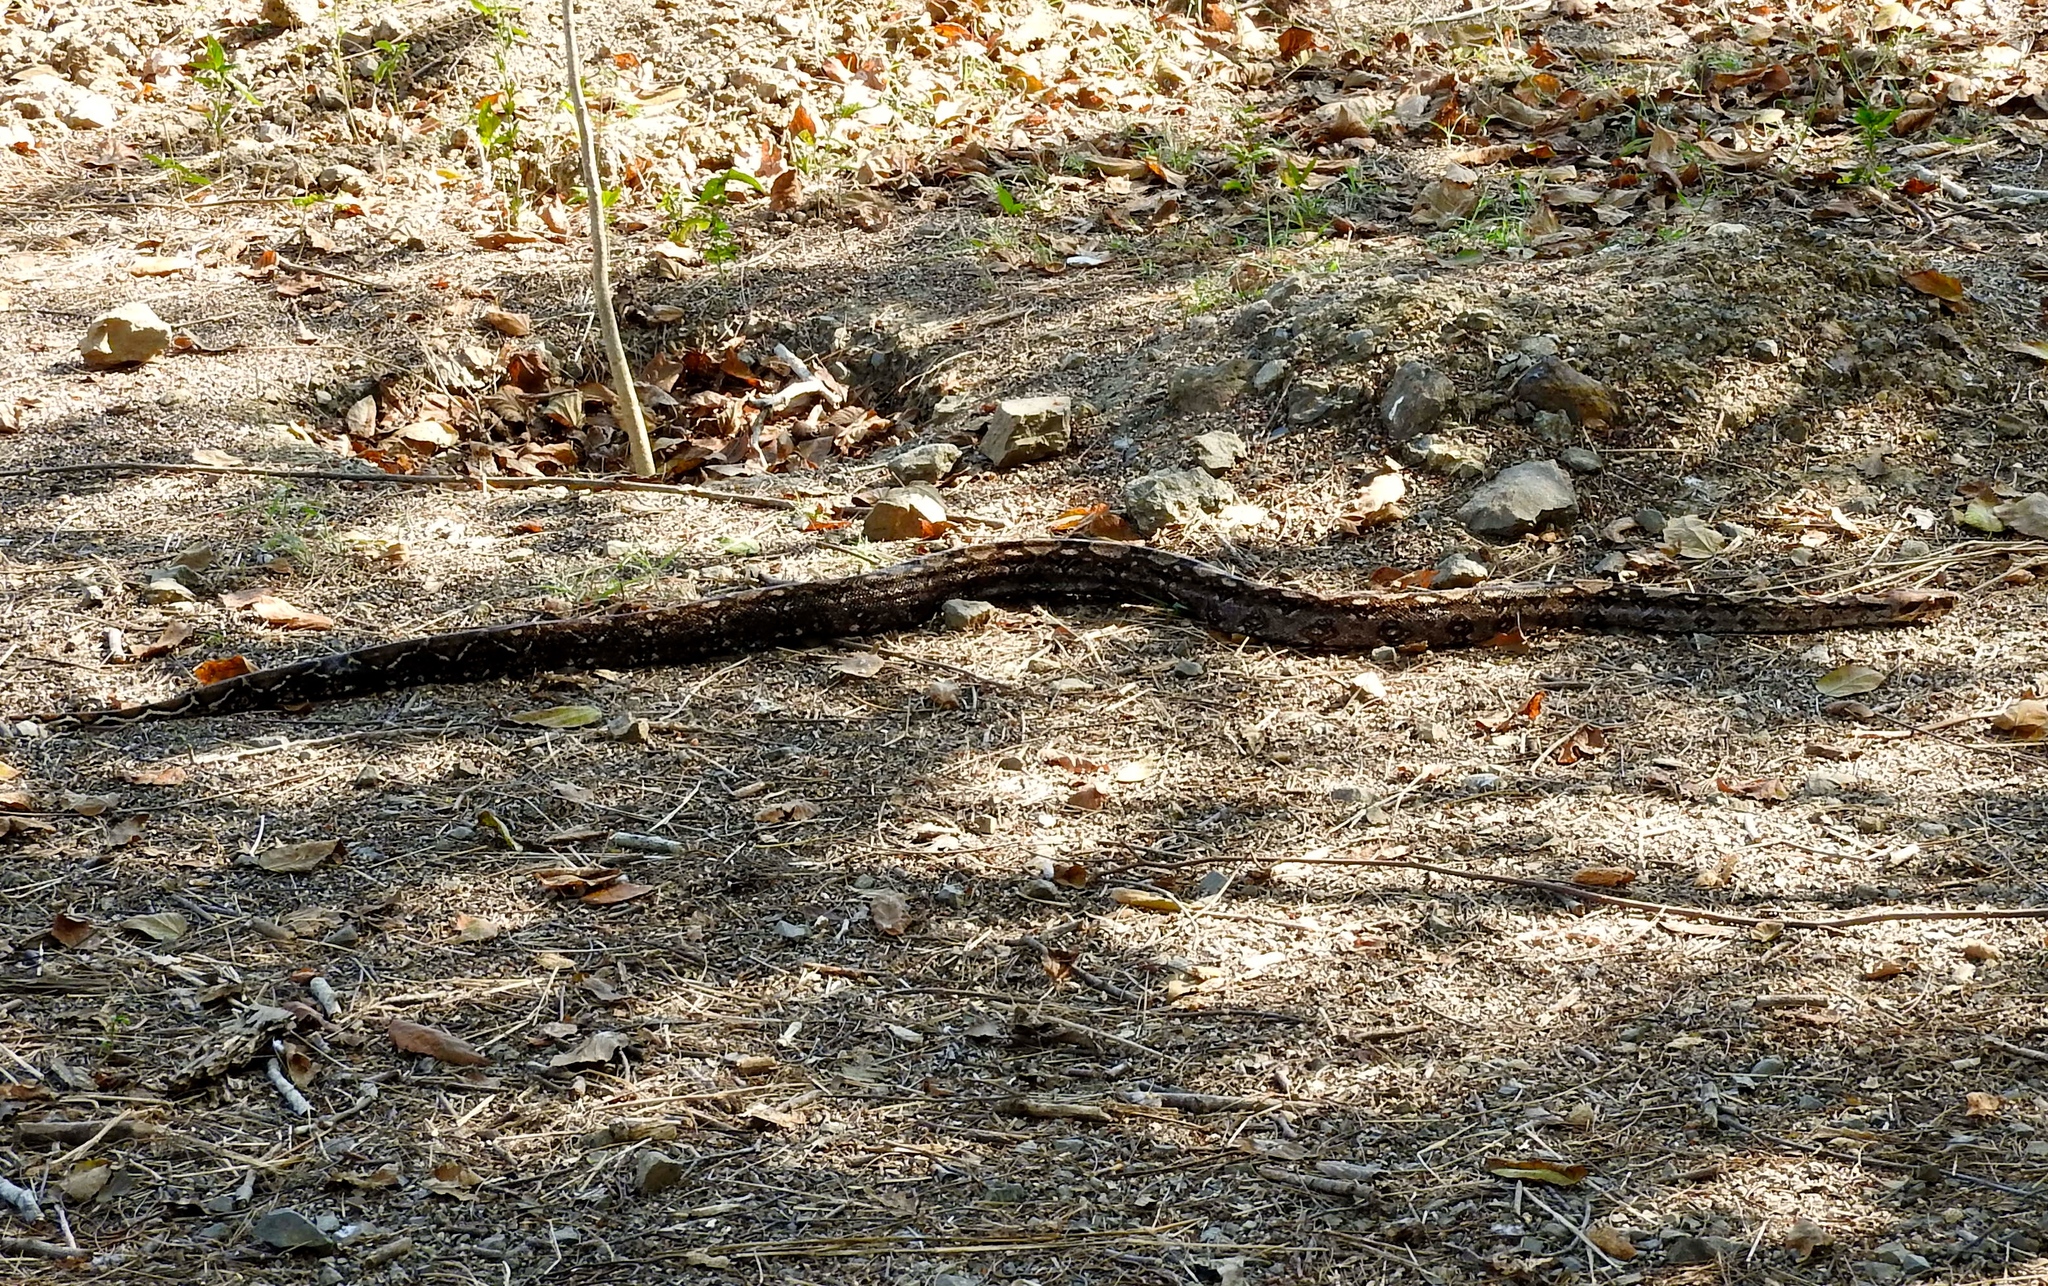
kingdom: Animalia
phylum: Chordata
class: Squamata
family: Boidae
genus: Boa
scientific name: Boa
